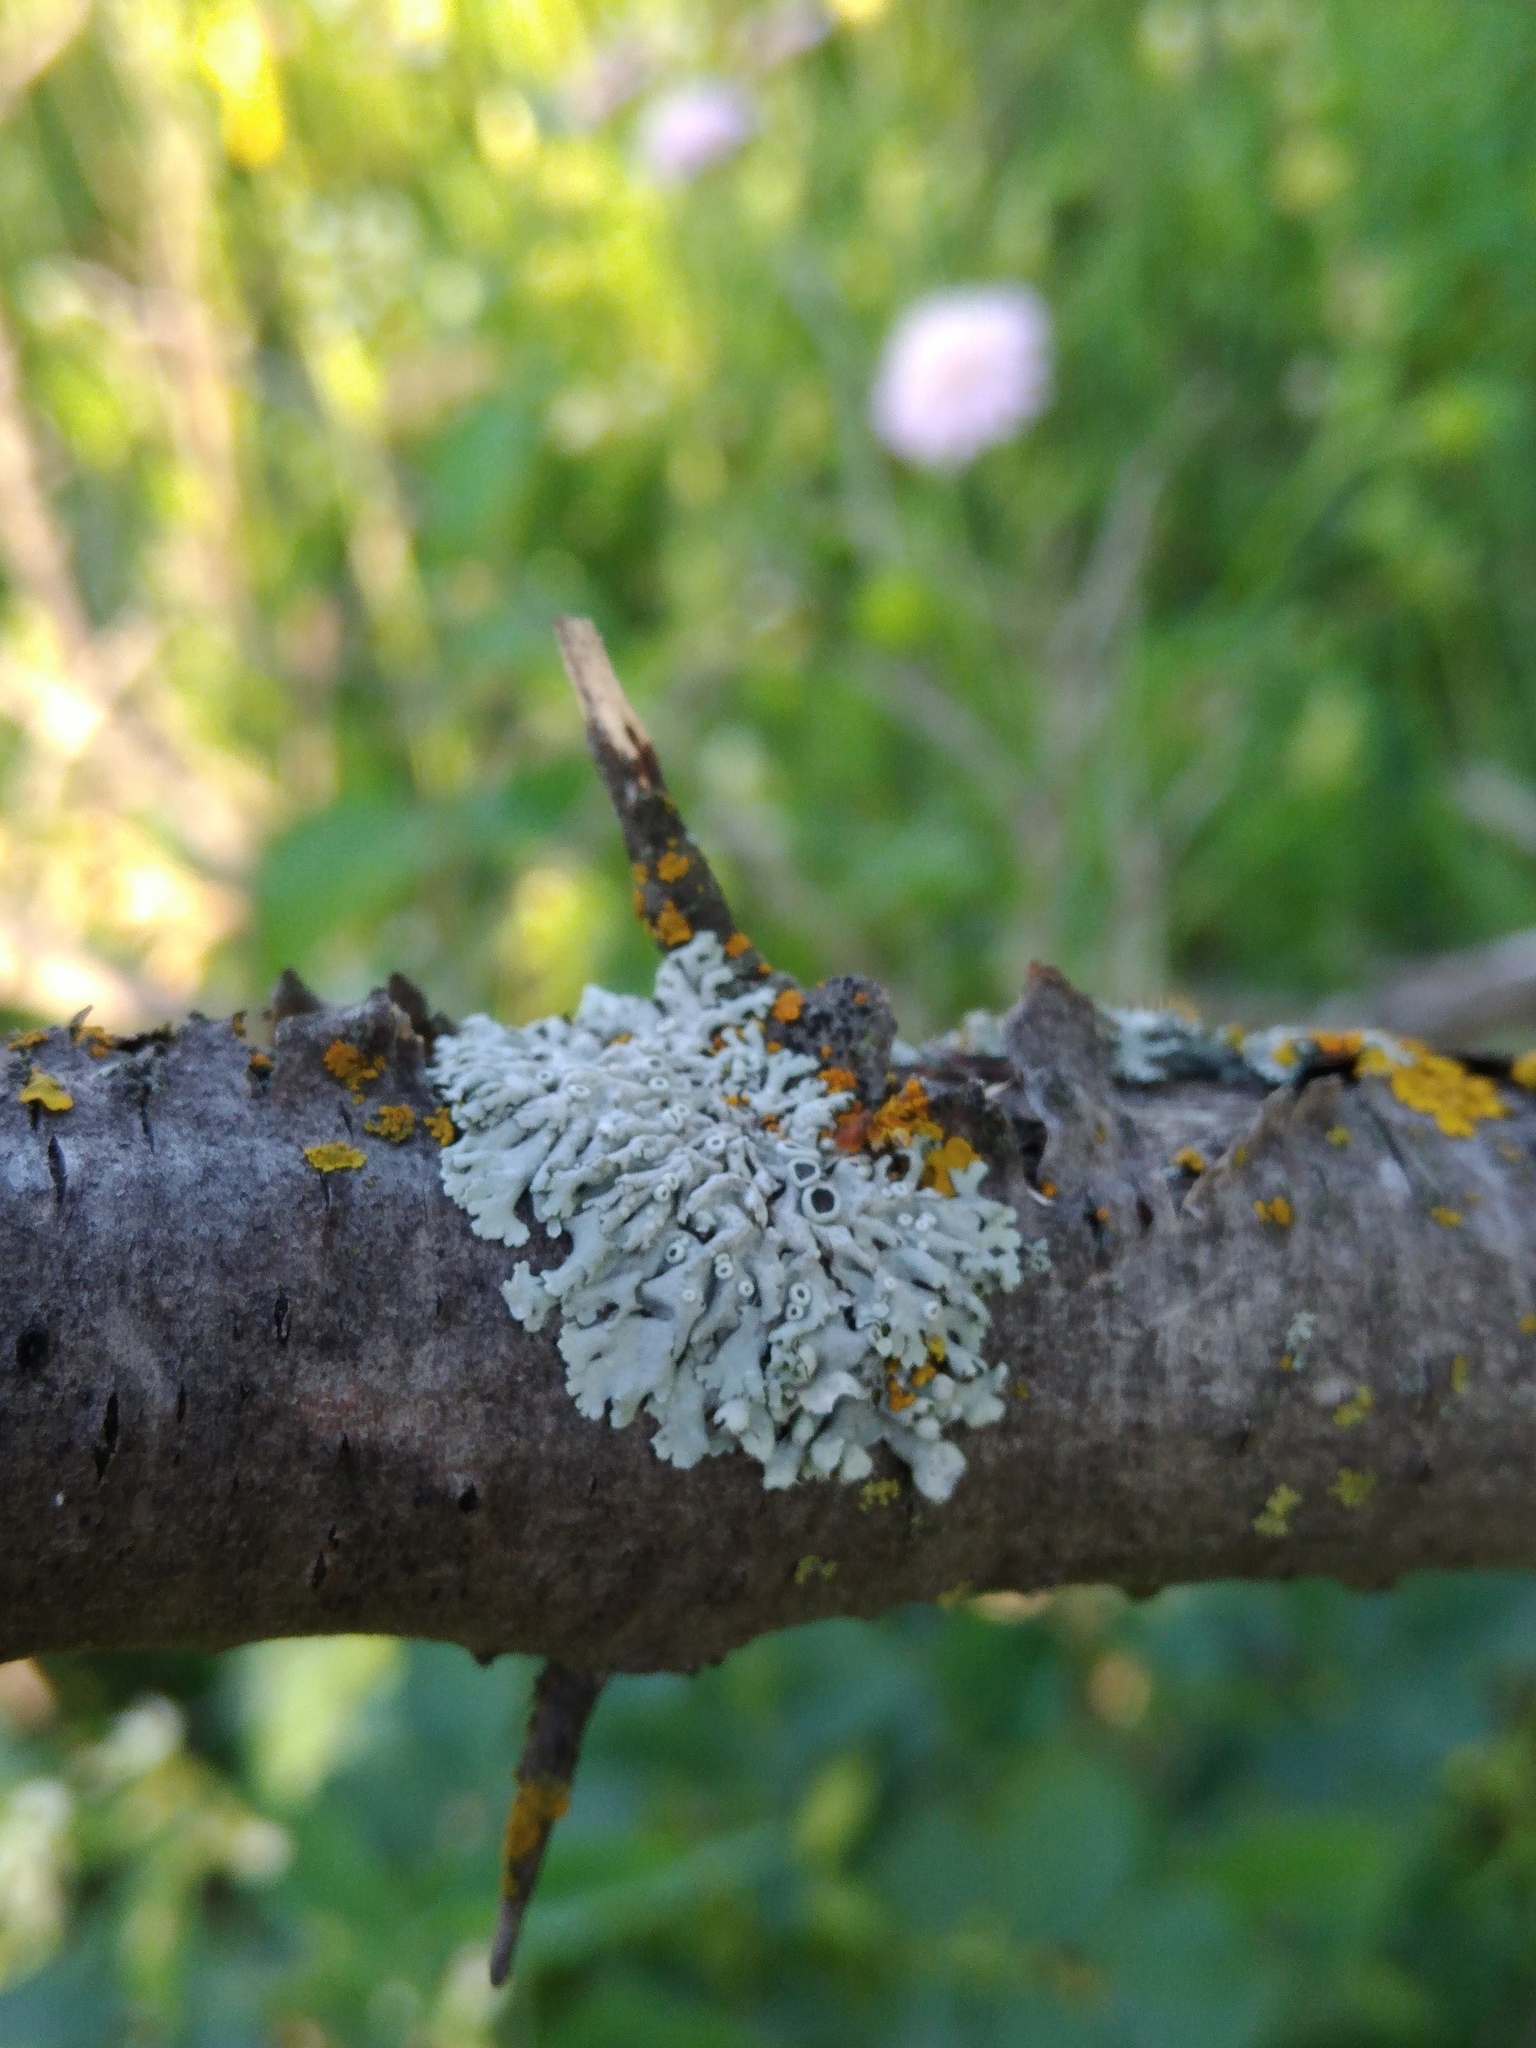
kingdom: Fungi
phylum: Ascomycota
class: Lecanoromycetes
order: Caliciales
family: Physciaceae
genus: Physcia
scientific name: Physcia stellaris
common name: Star rosette lichen
